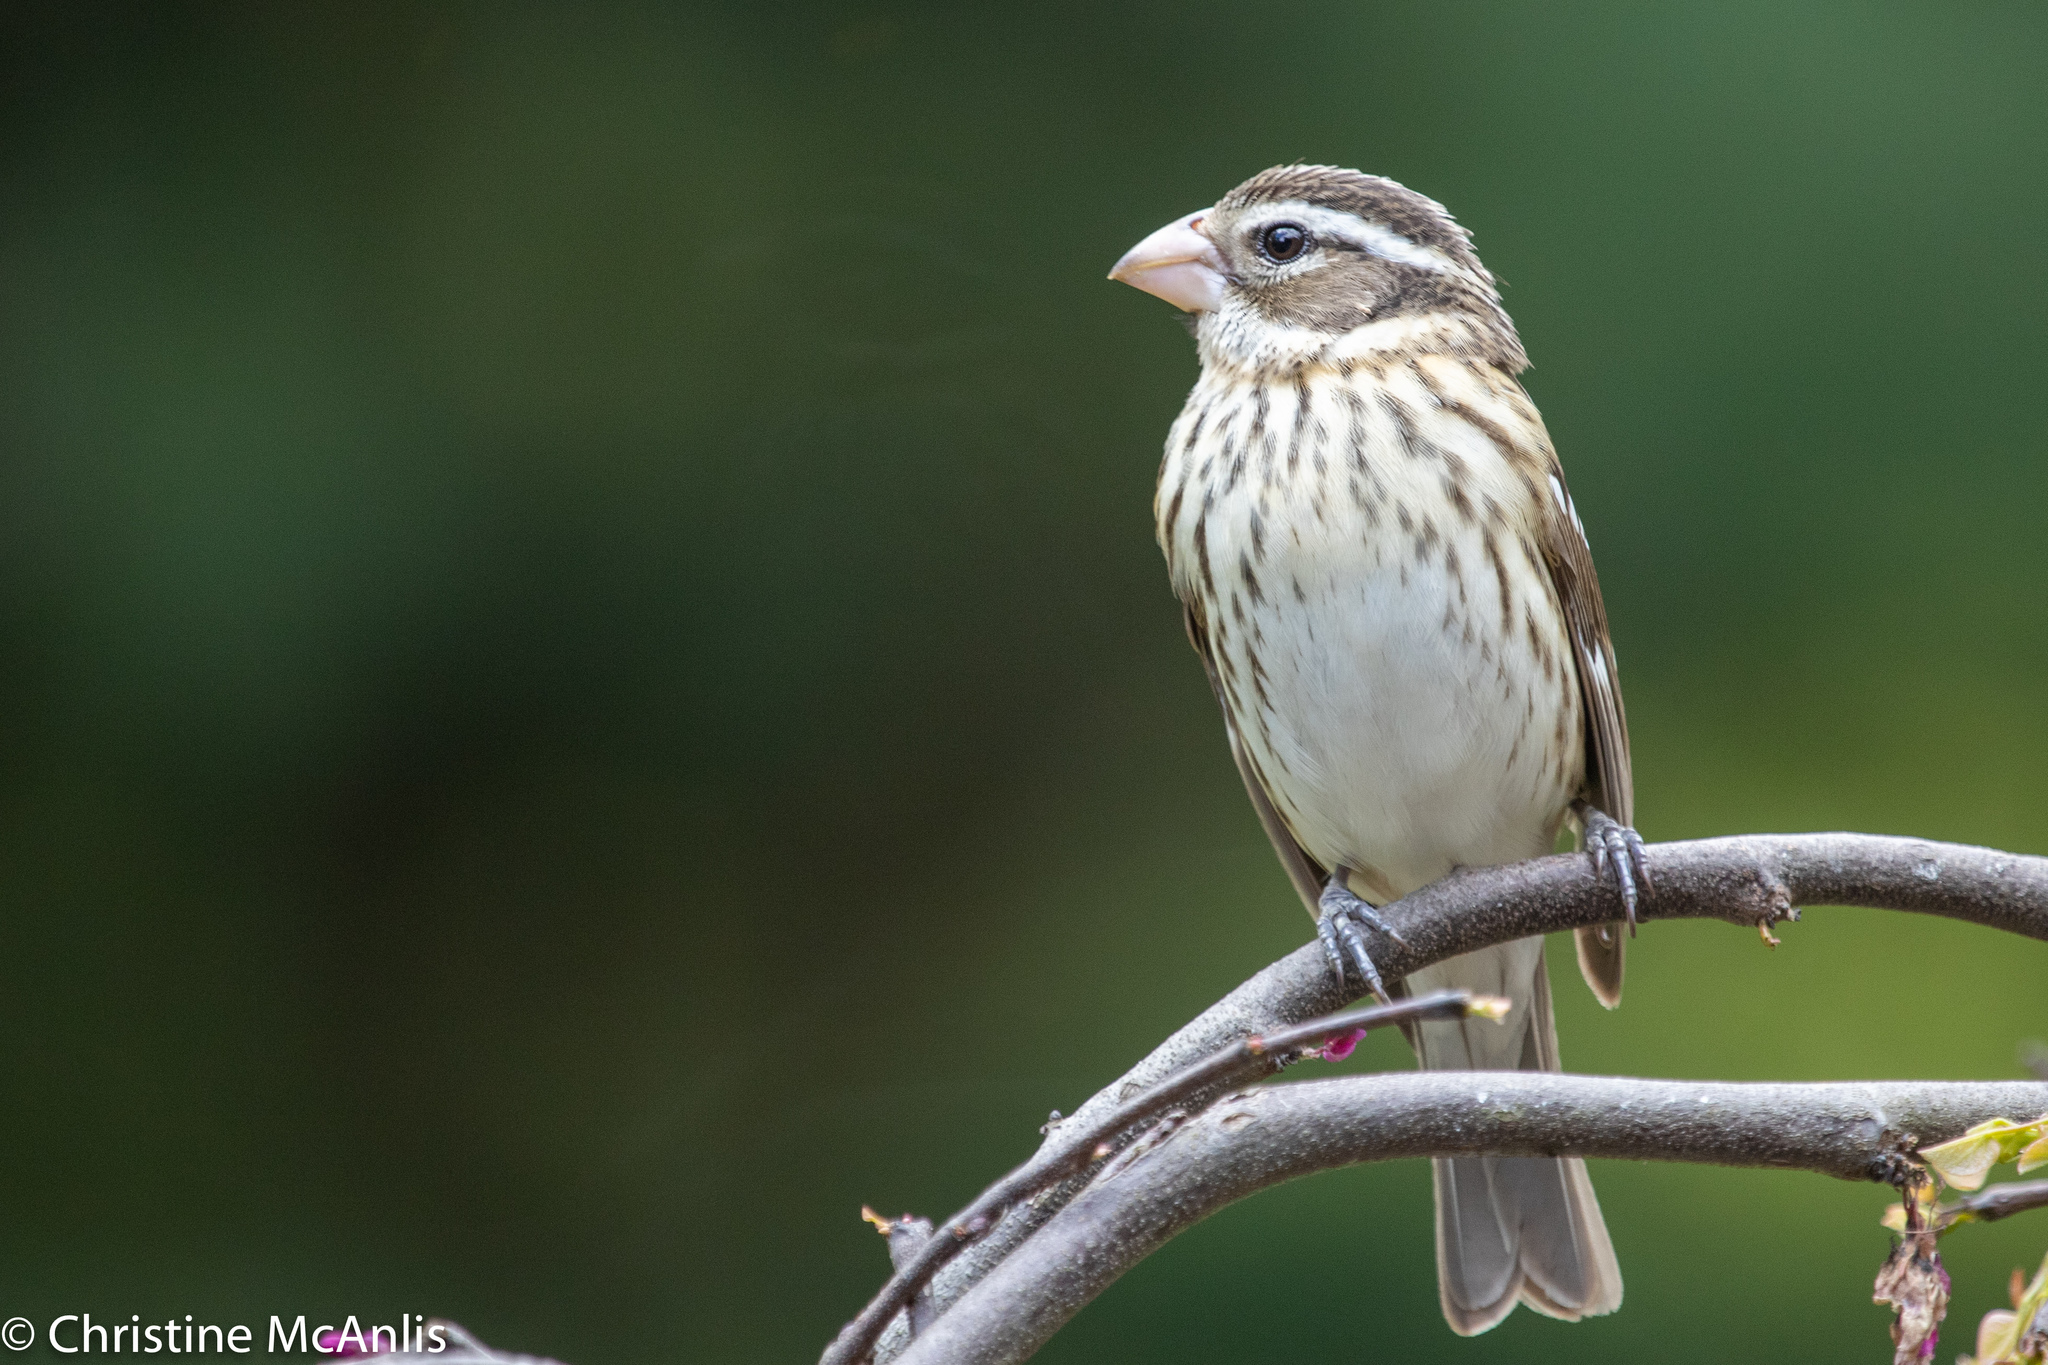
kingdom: Animalia
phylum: Chordata
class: Aves
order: Passeriformes
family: Cardinalidae
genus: Pheucticus
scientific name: Pheucticus ludovicianus
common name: Rose-breasted grosbeak
